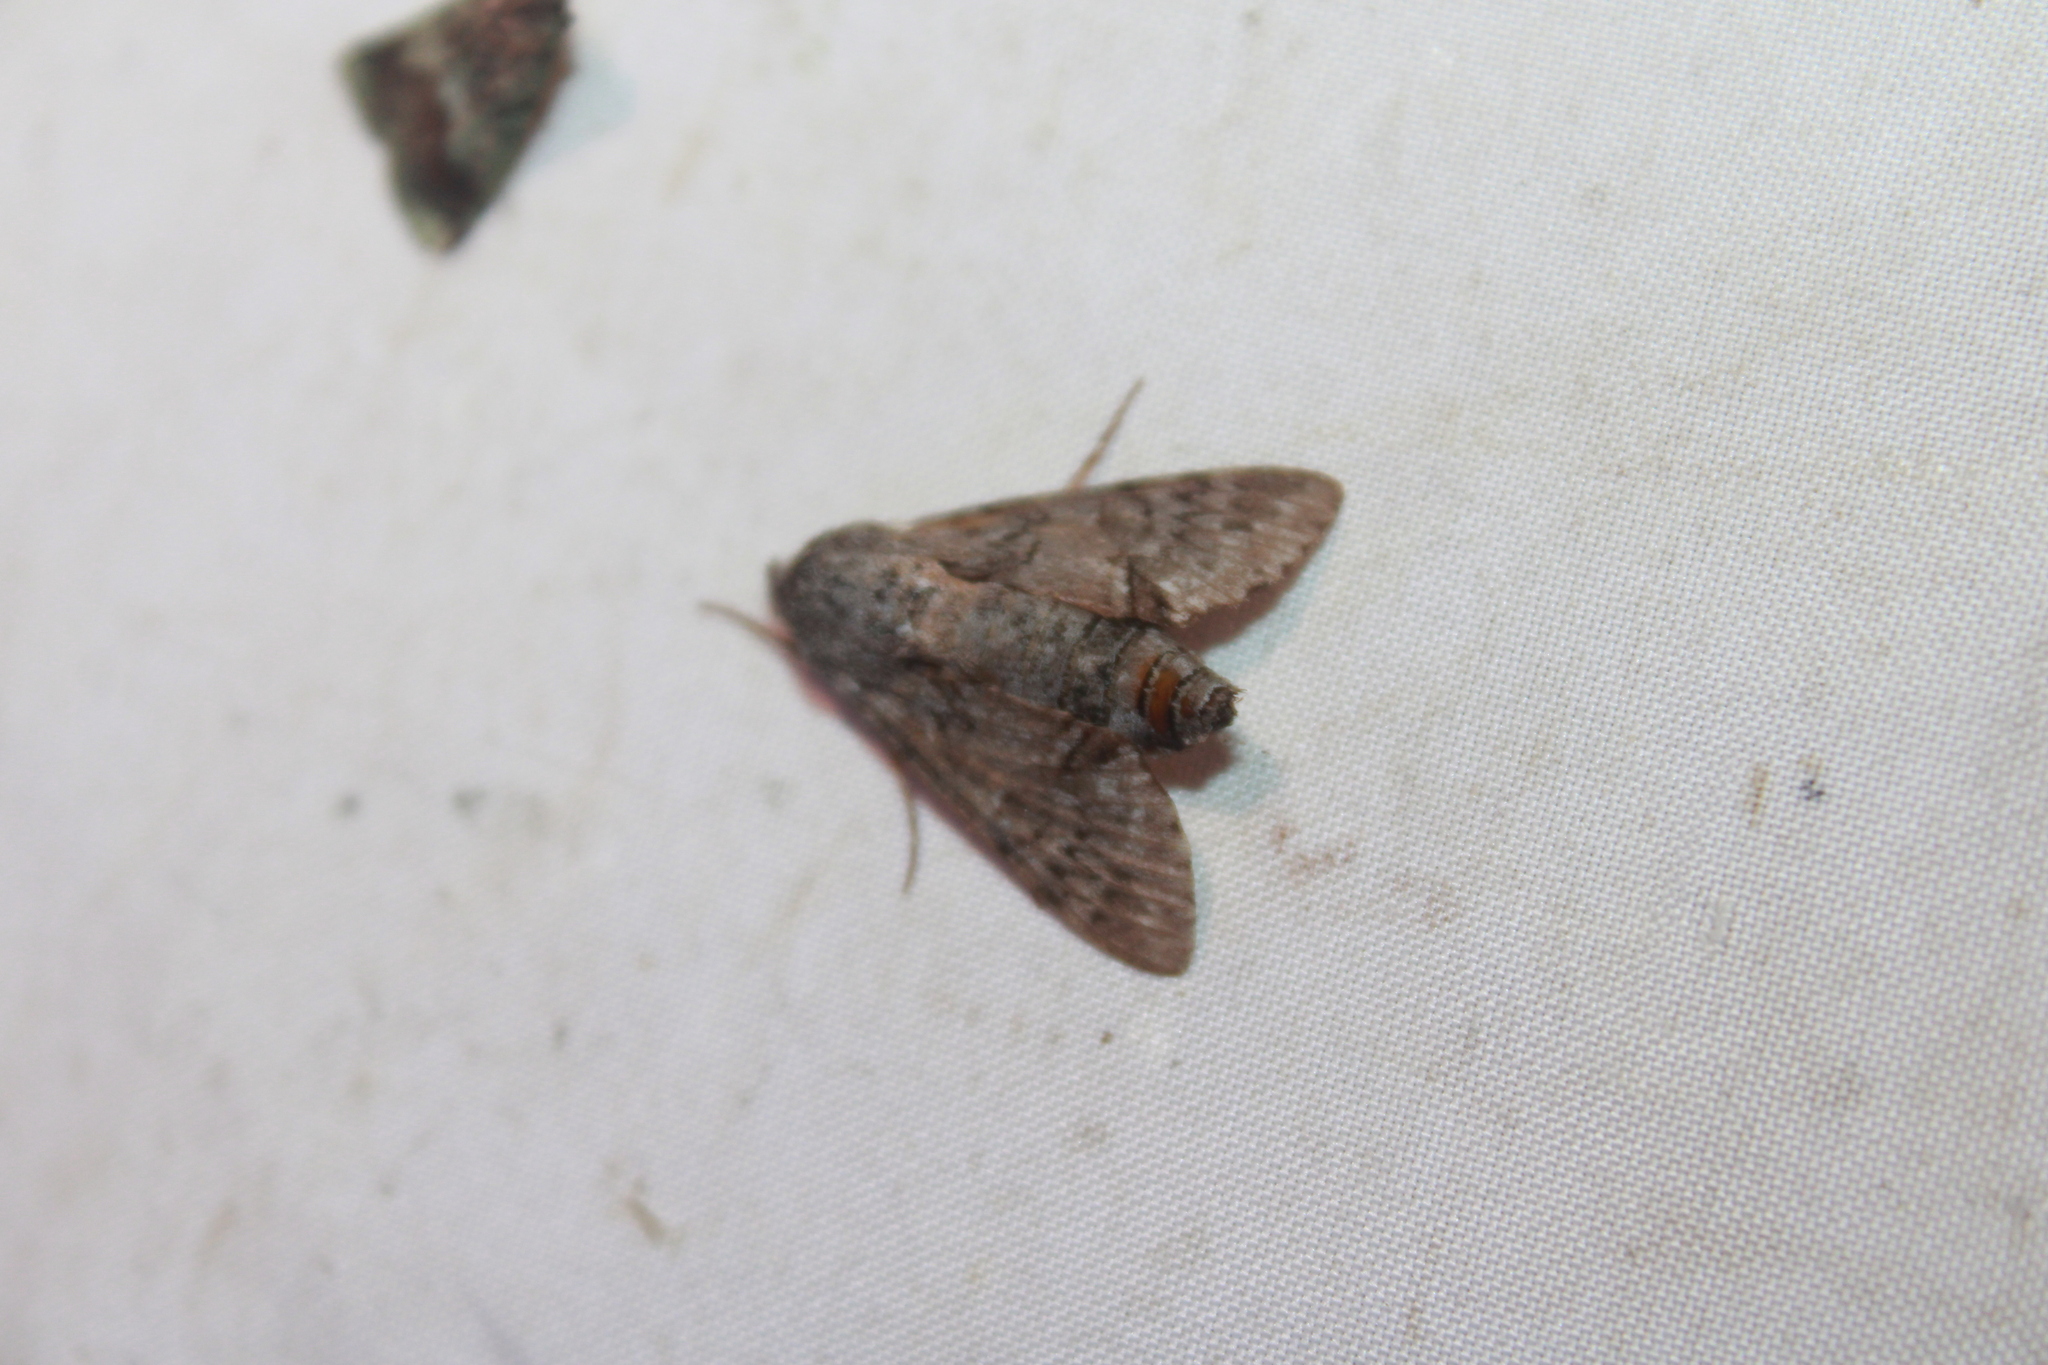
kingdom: Animalia
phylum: Arthropoda
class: Insecta
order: Lepidoptera
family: Sphingidae
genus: Cautethia
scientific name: Cautethia grotei
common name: Grote's sphinx
